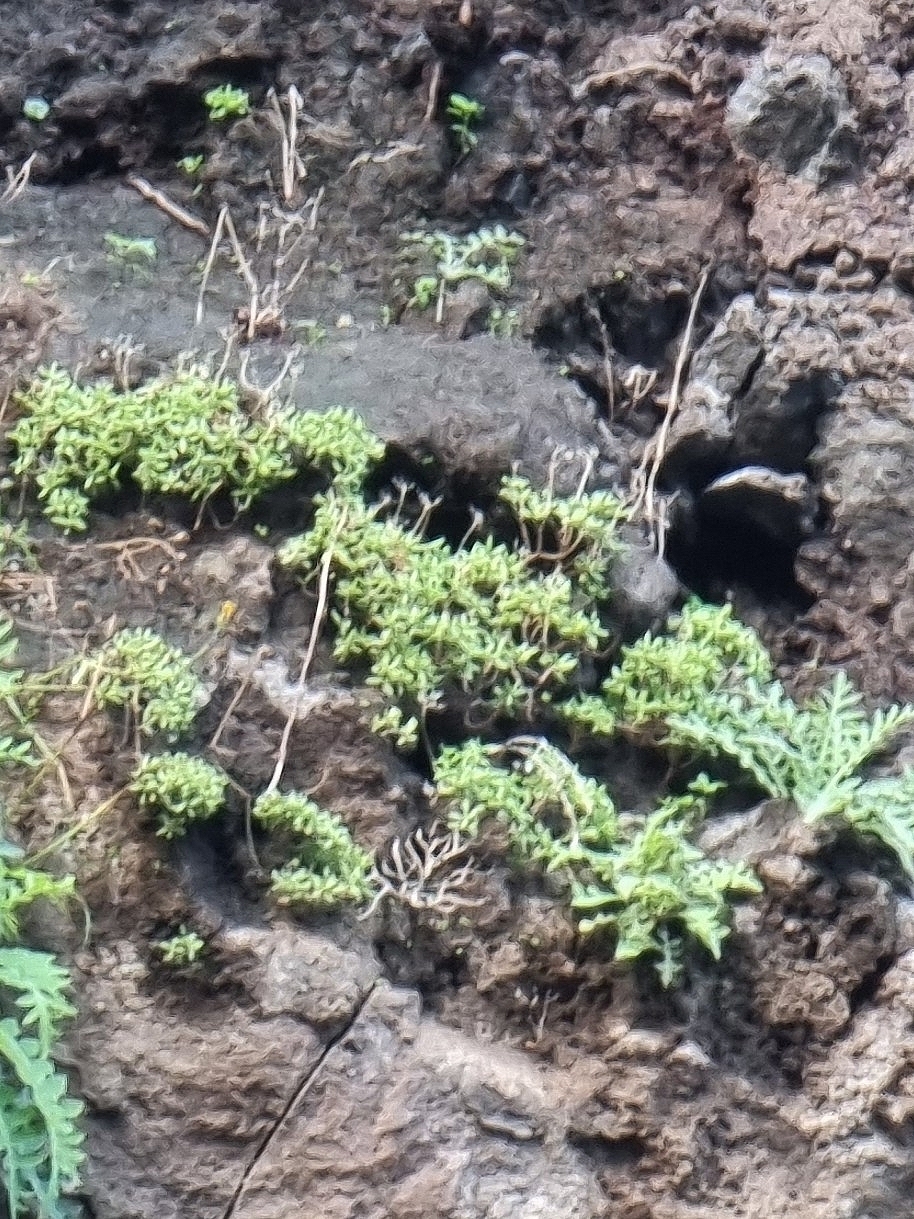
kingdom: Plantae
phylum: Tracheophyta
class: Magnoliopsida
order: Saxifragales
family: Crassulaceae
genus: Sedum
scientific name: Sedum nudum
